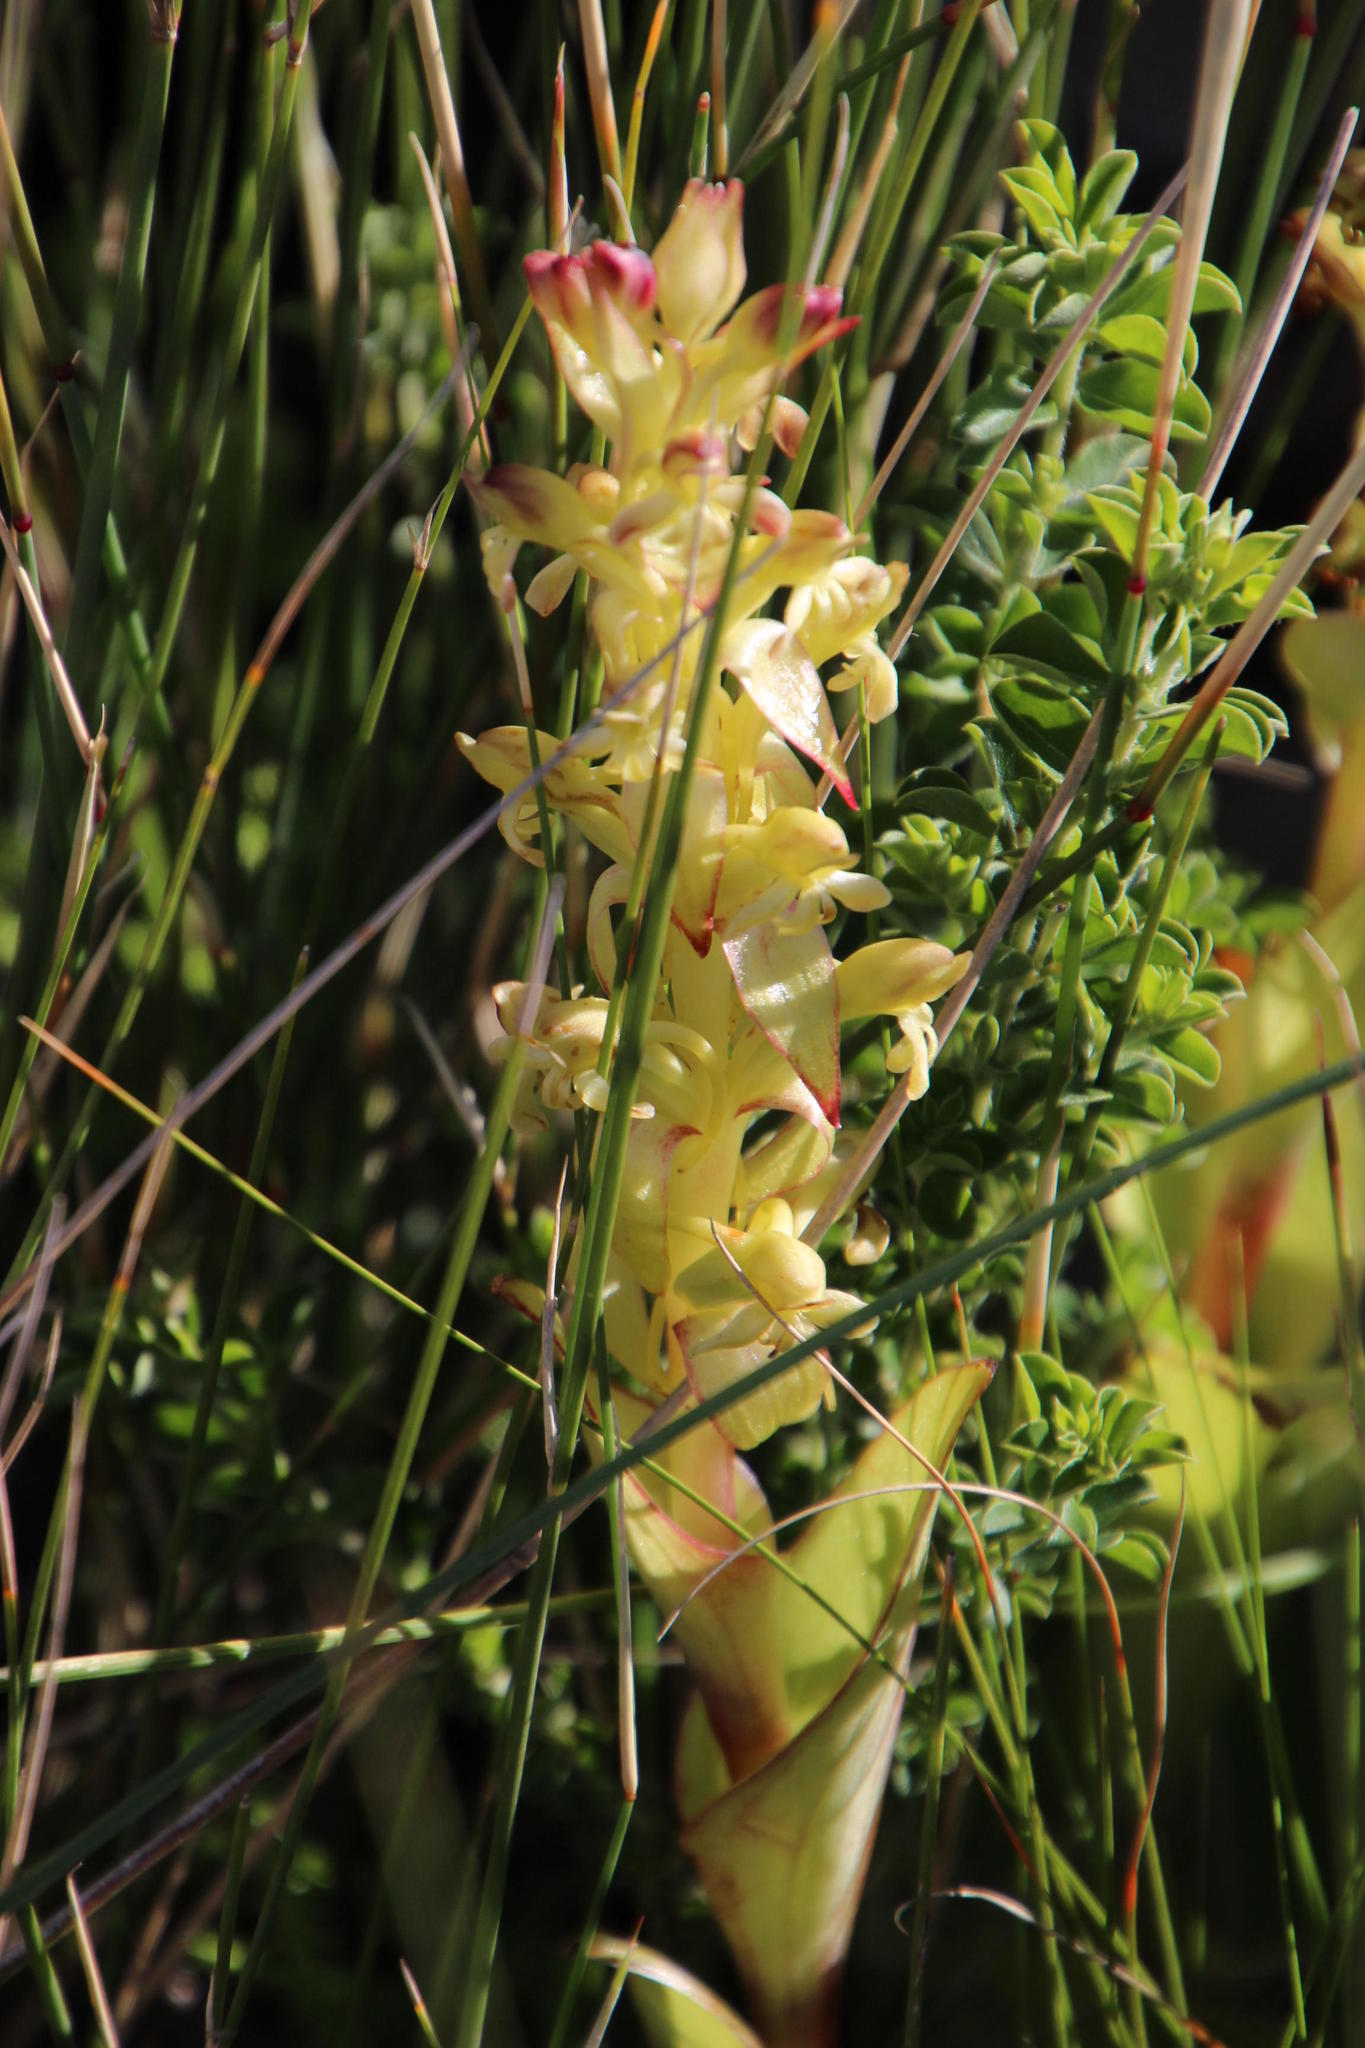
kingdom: Plantae
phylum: Tracheophyta
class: Liliopsida
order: Asparagales
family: Orchidaceae
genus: Satyrium
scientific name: Satyrium odorum
